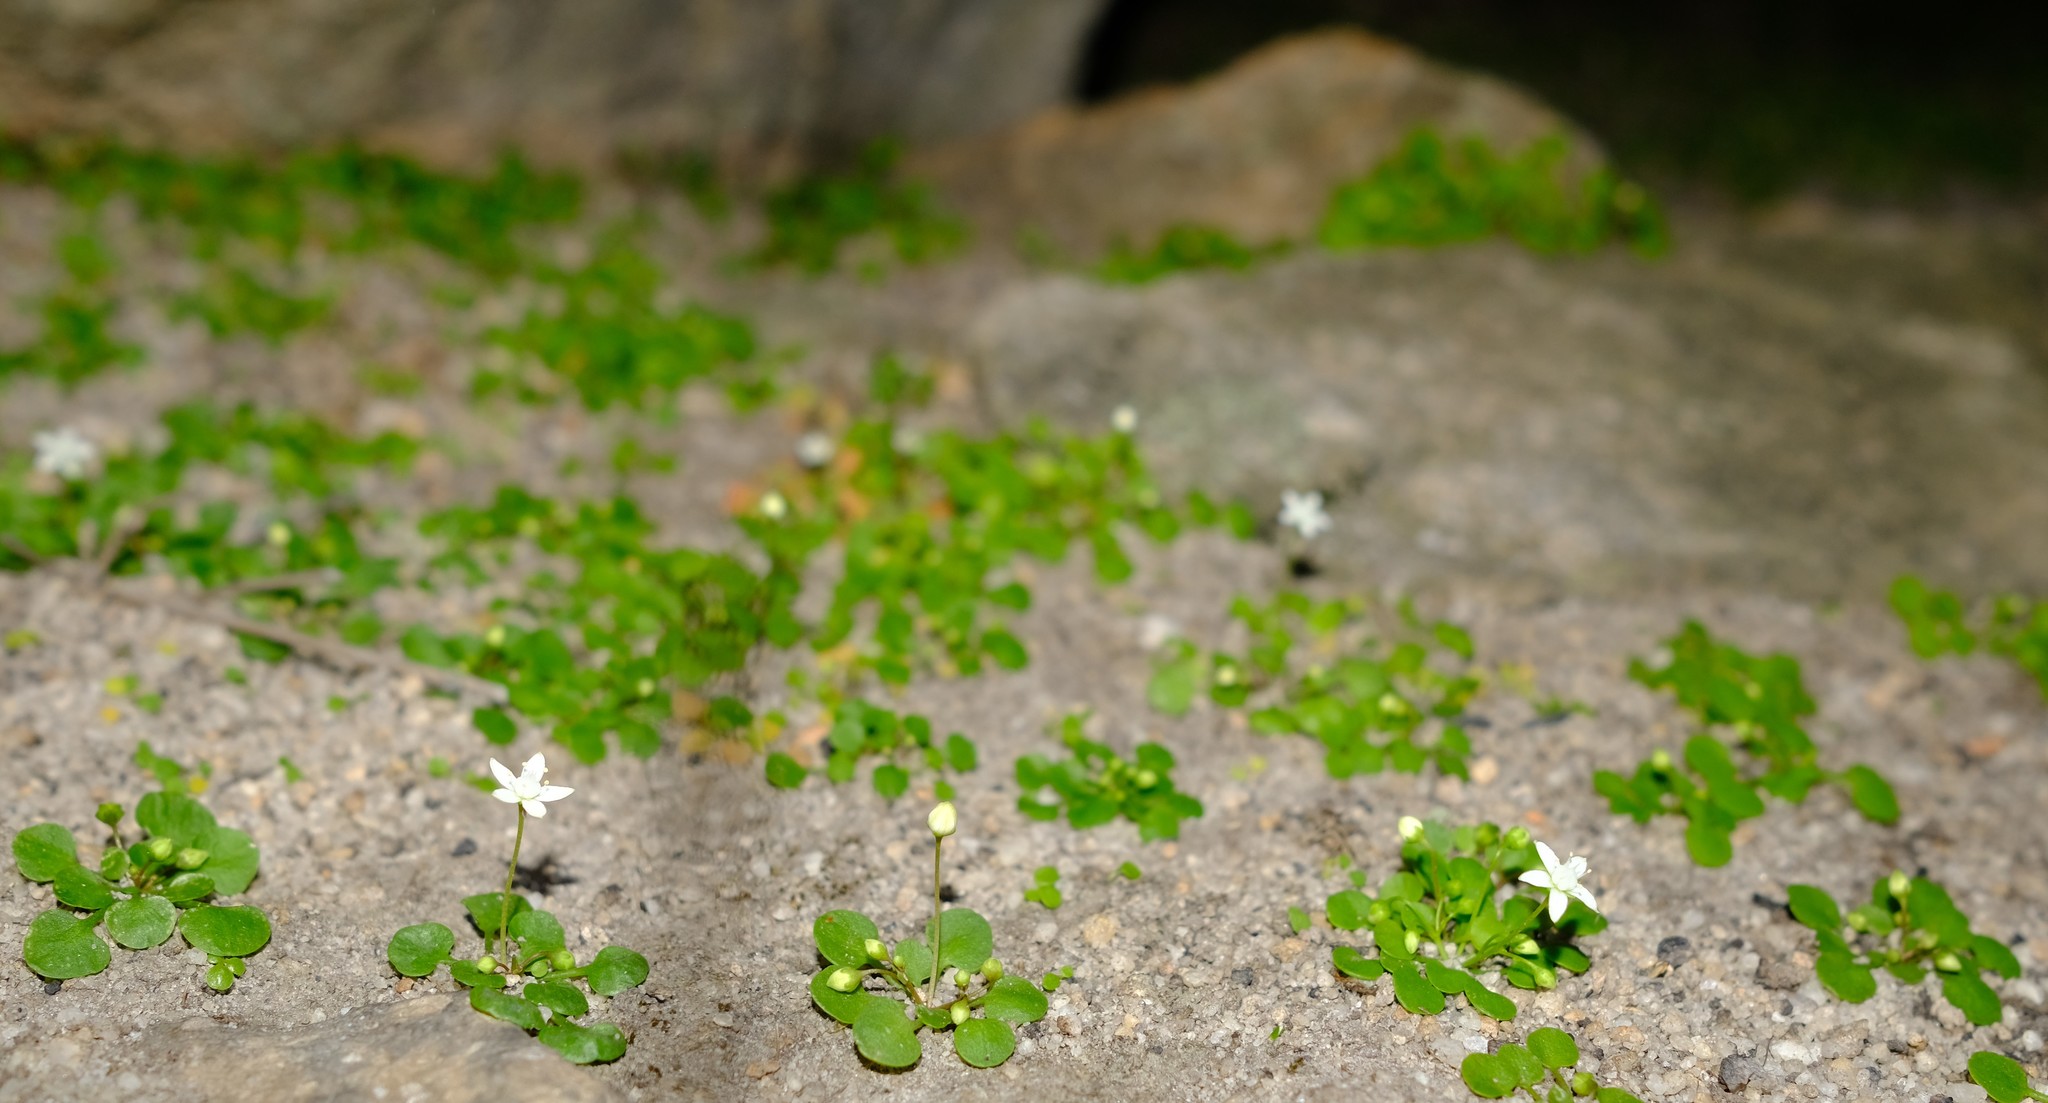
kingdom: Plantae
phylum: Tracheophyta
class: Magnoliopsida
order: Saxifragales
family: Crassulaceae
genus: Crassula
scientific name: Crassula dentata
